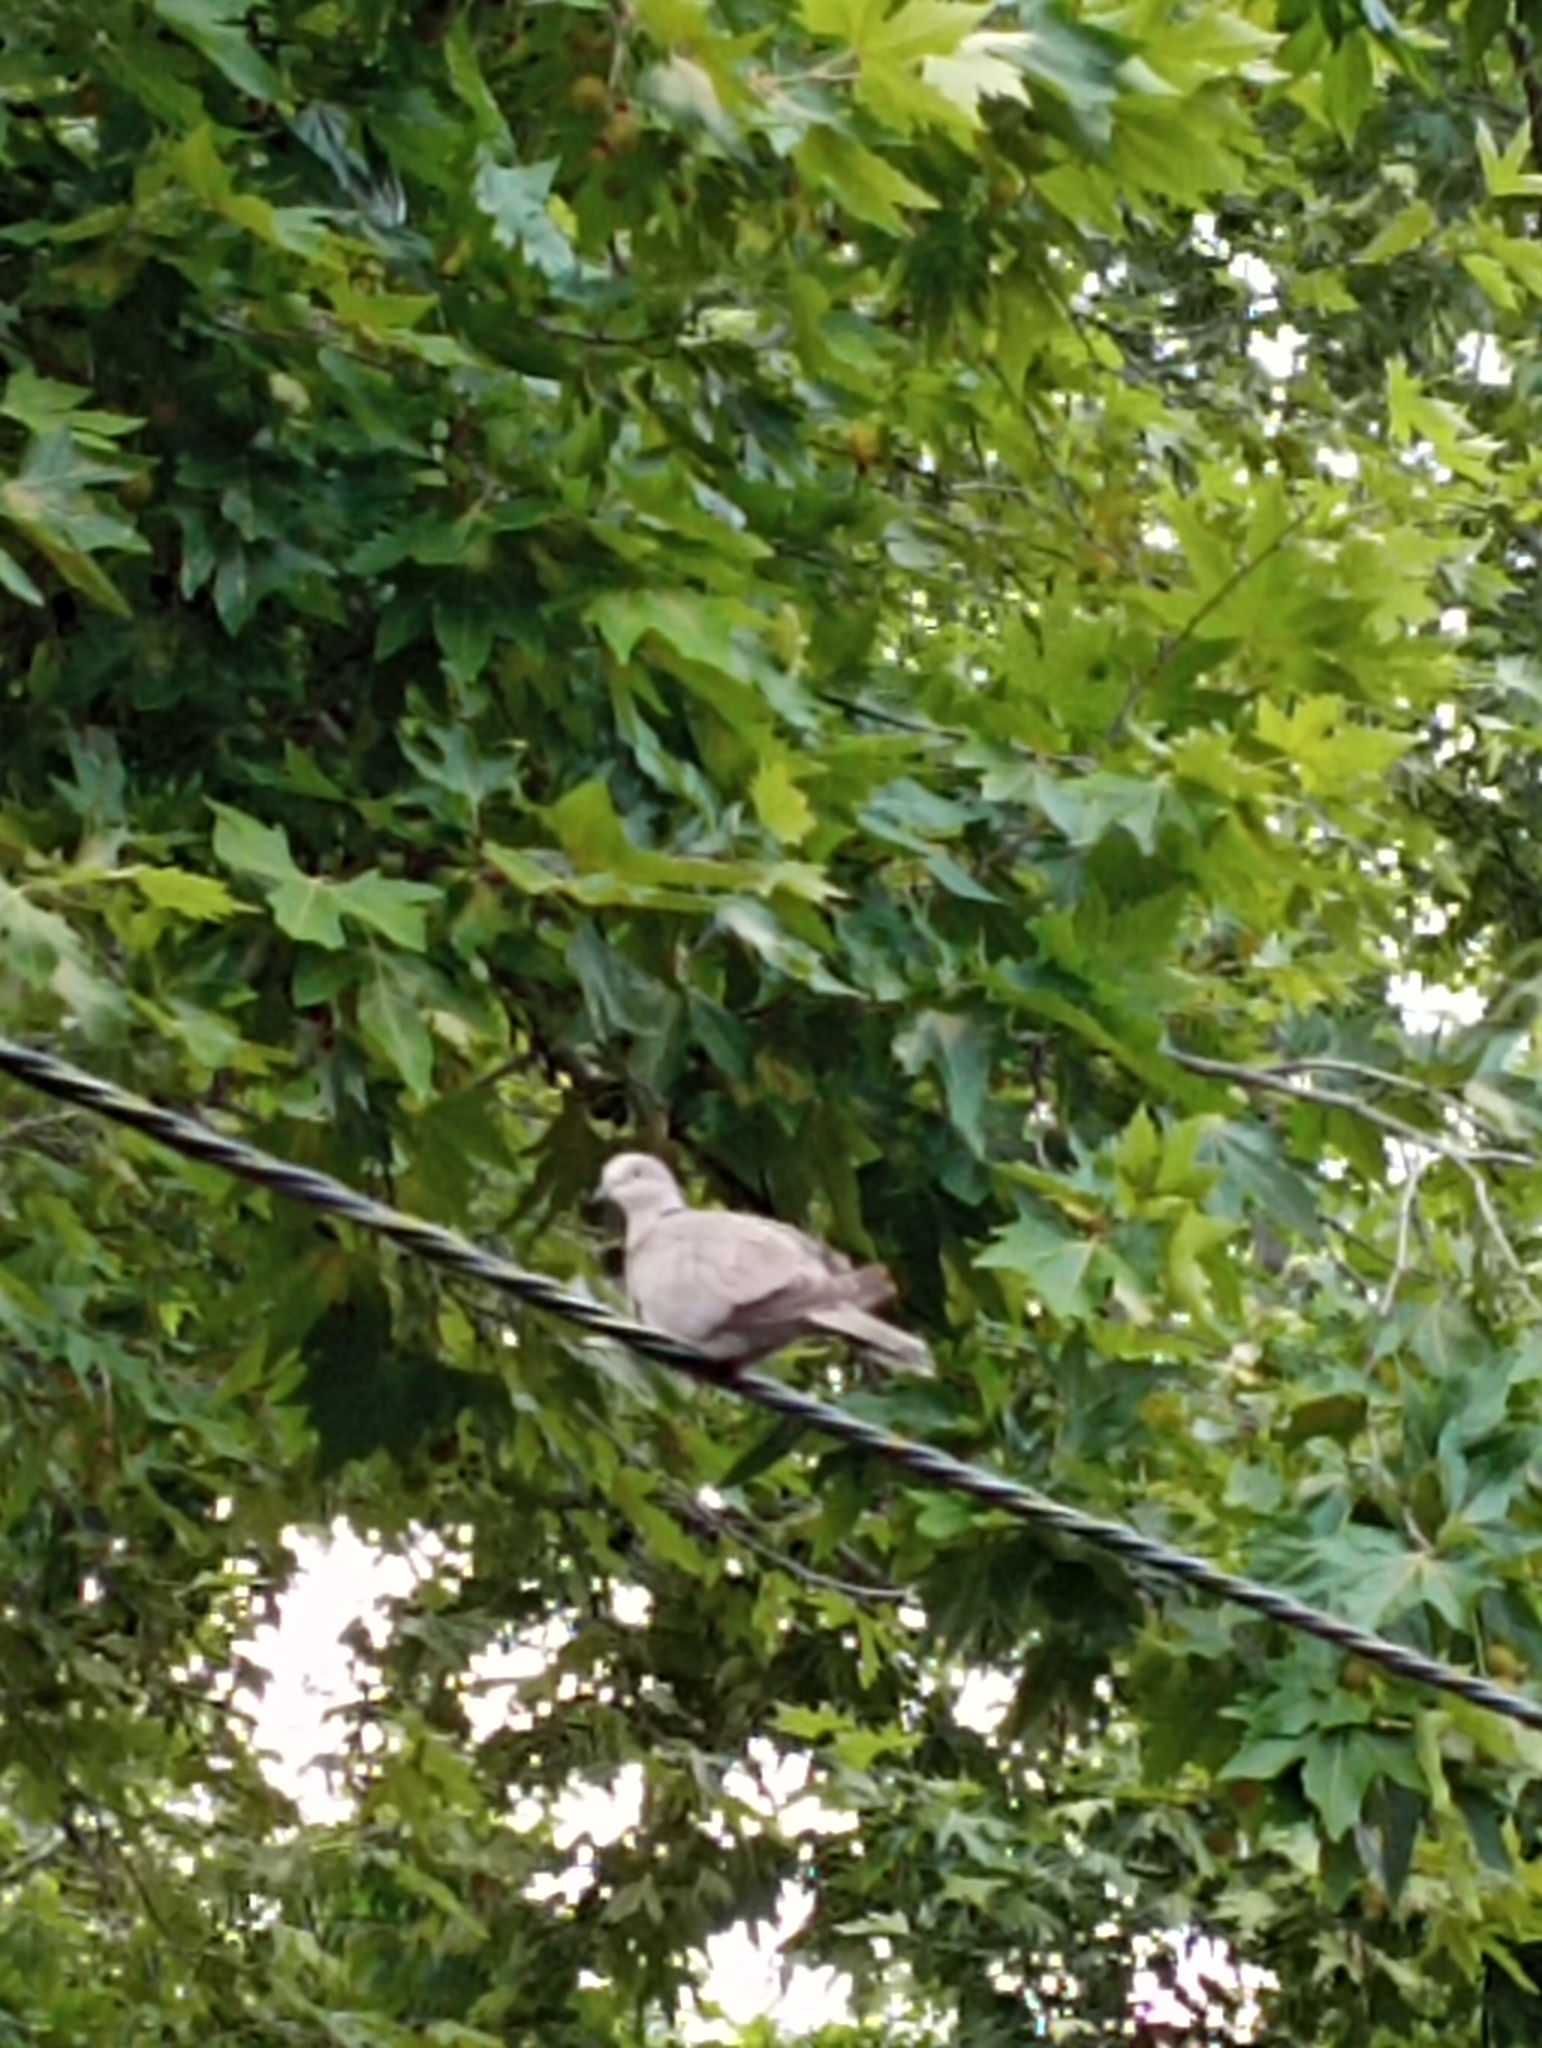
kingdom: Animalia
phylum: Chordata
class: Aves
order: Columbiformes
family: Columbidae
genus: Streptopelia
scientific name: Streptopelia decaocto
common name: Eurasian collared dove
